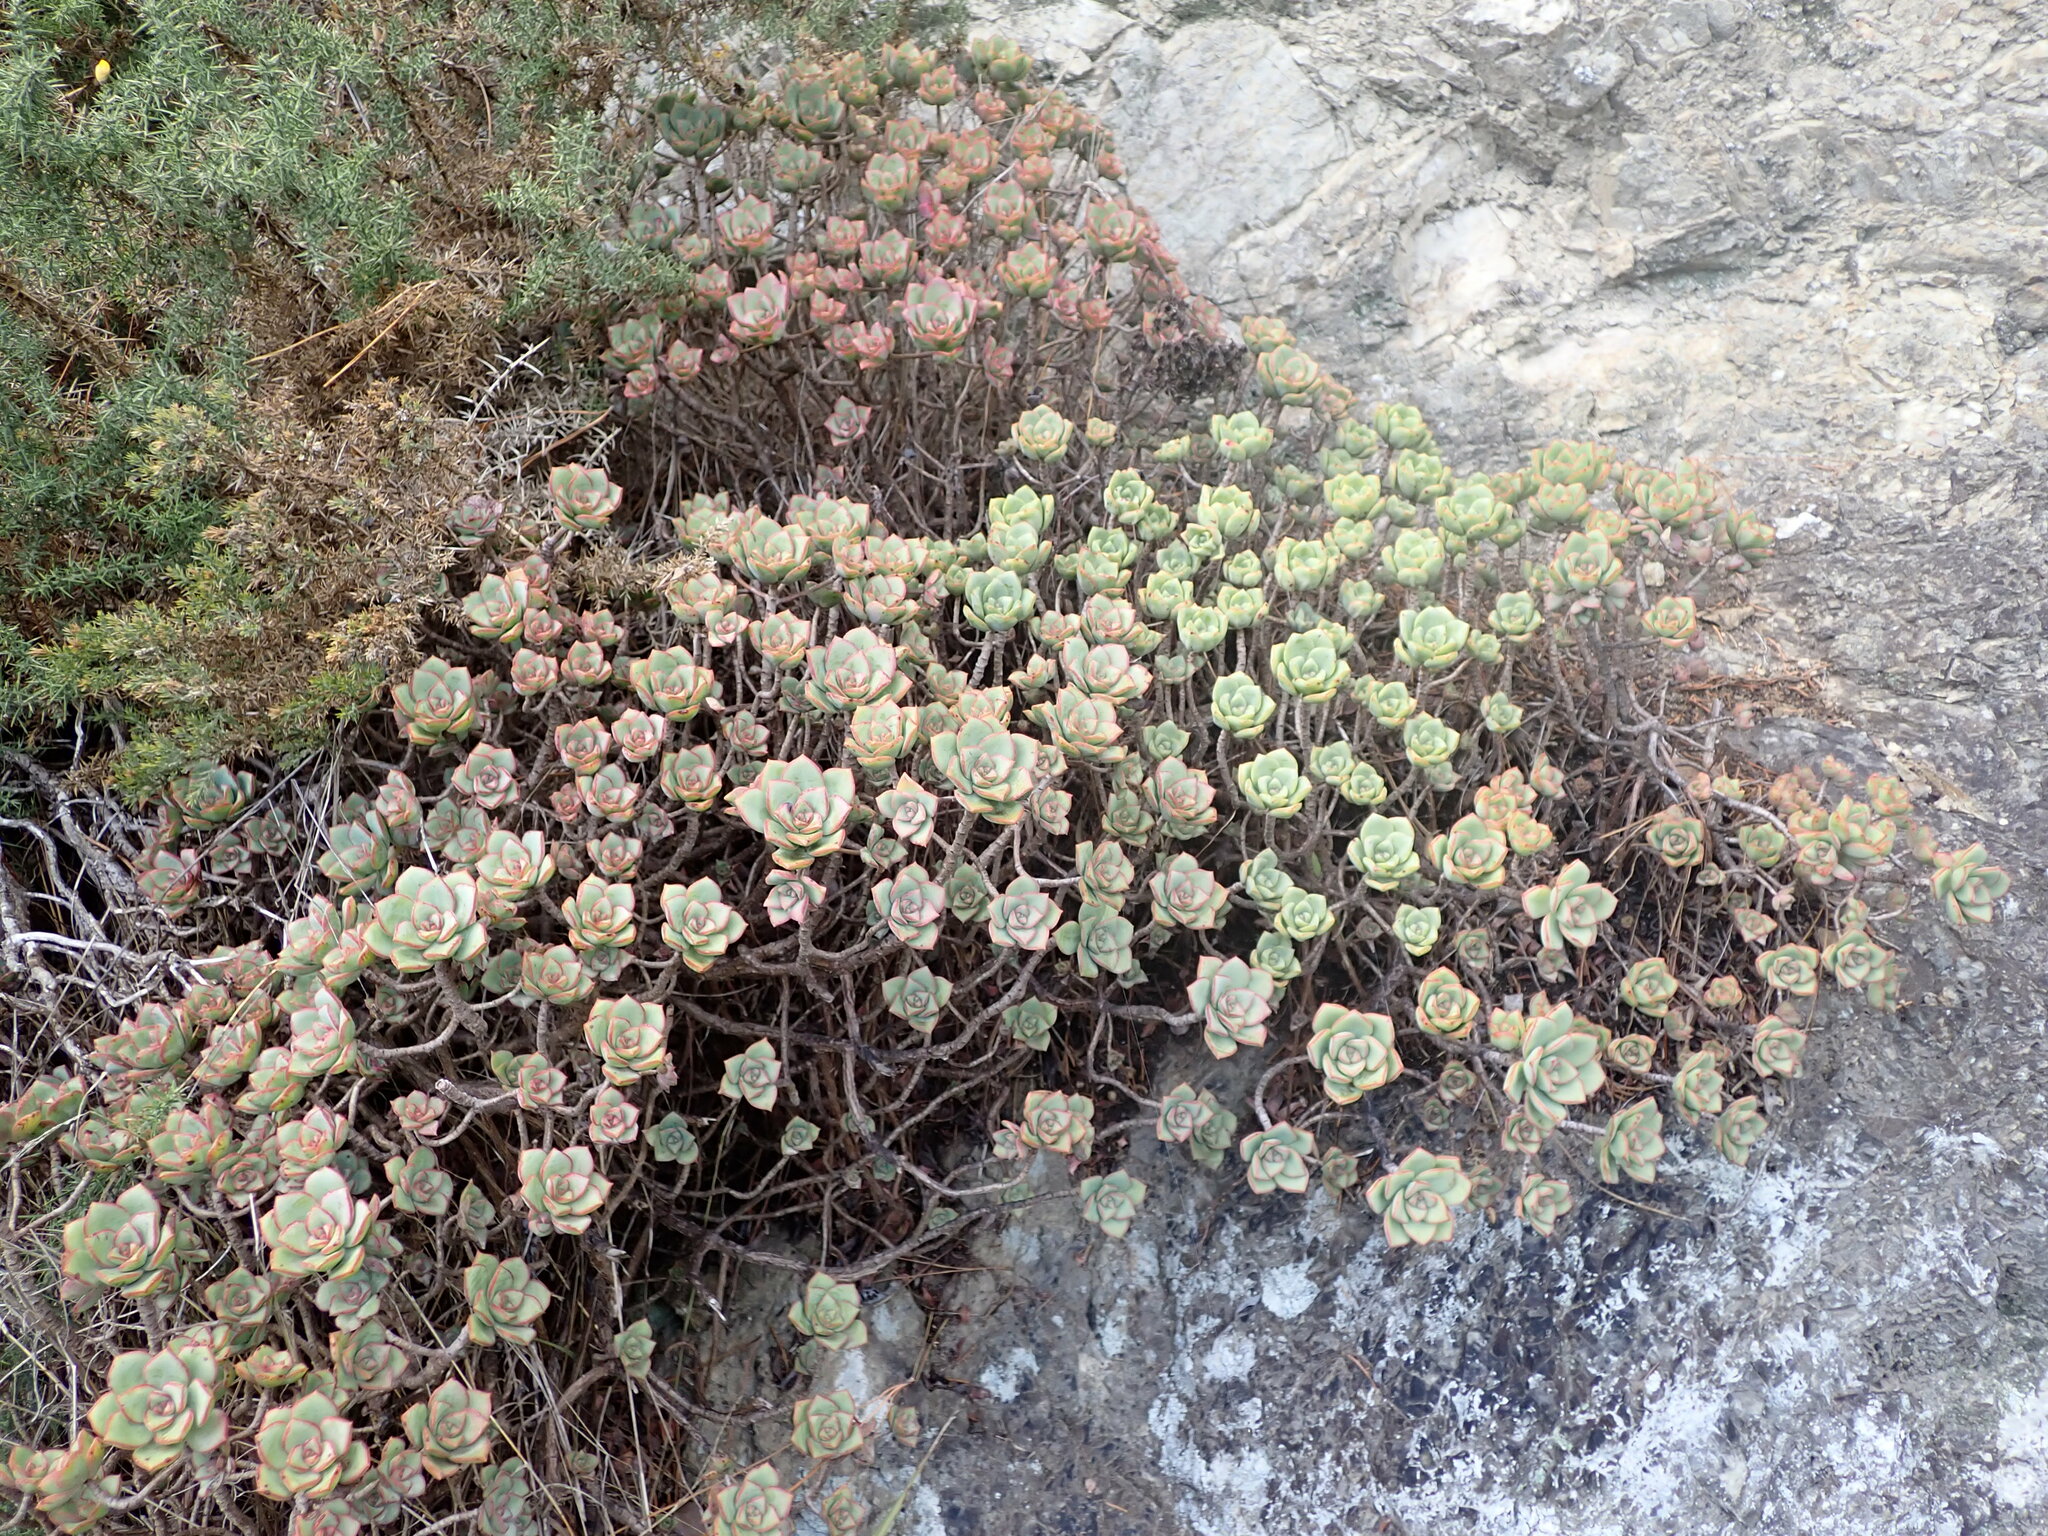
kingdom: Plantae
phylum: Tracheophyta
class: Magnoliopsida
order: Saxifragales
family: Crassulaceae
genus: Aeonium
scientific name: Aeonium haworthii
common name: Haworth's aeonium
